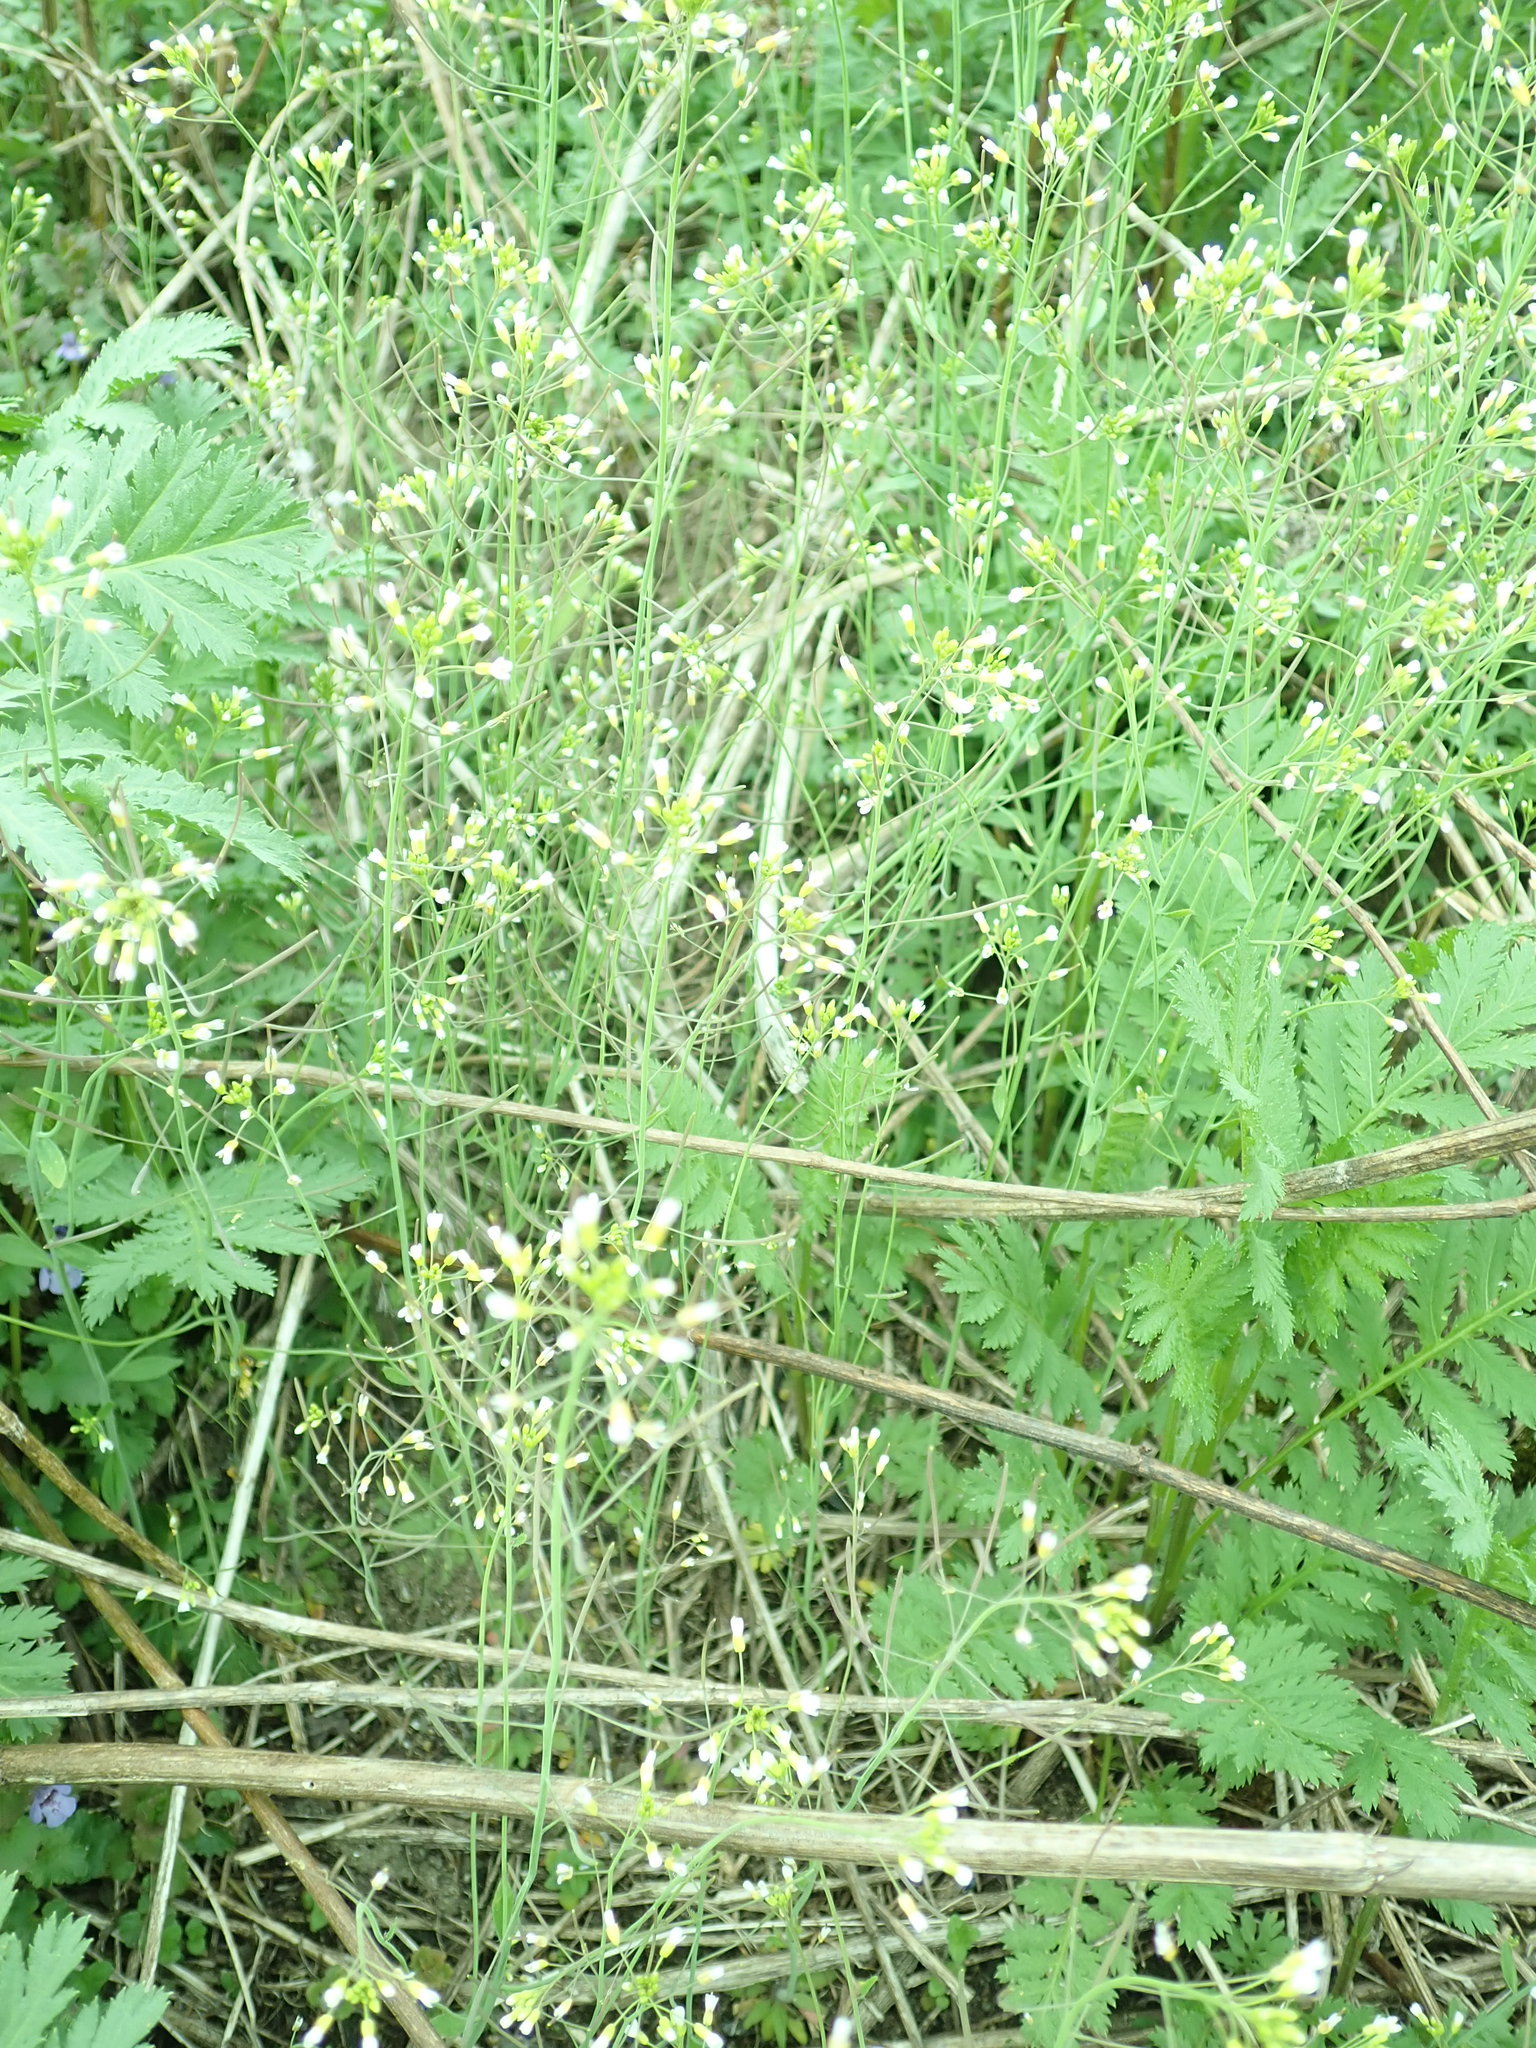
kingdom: Plantae
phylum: Tracheophyta
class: Magnoliopsida
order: Brassicales
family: Brassicaceae
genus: Arabidopsis
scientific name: Arabidopsis thaliana
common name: Thale cress
